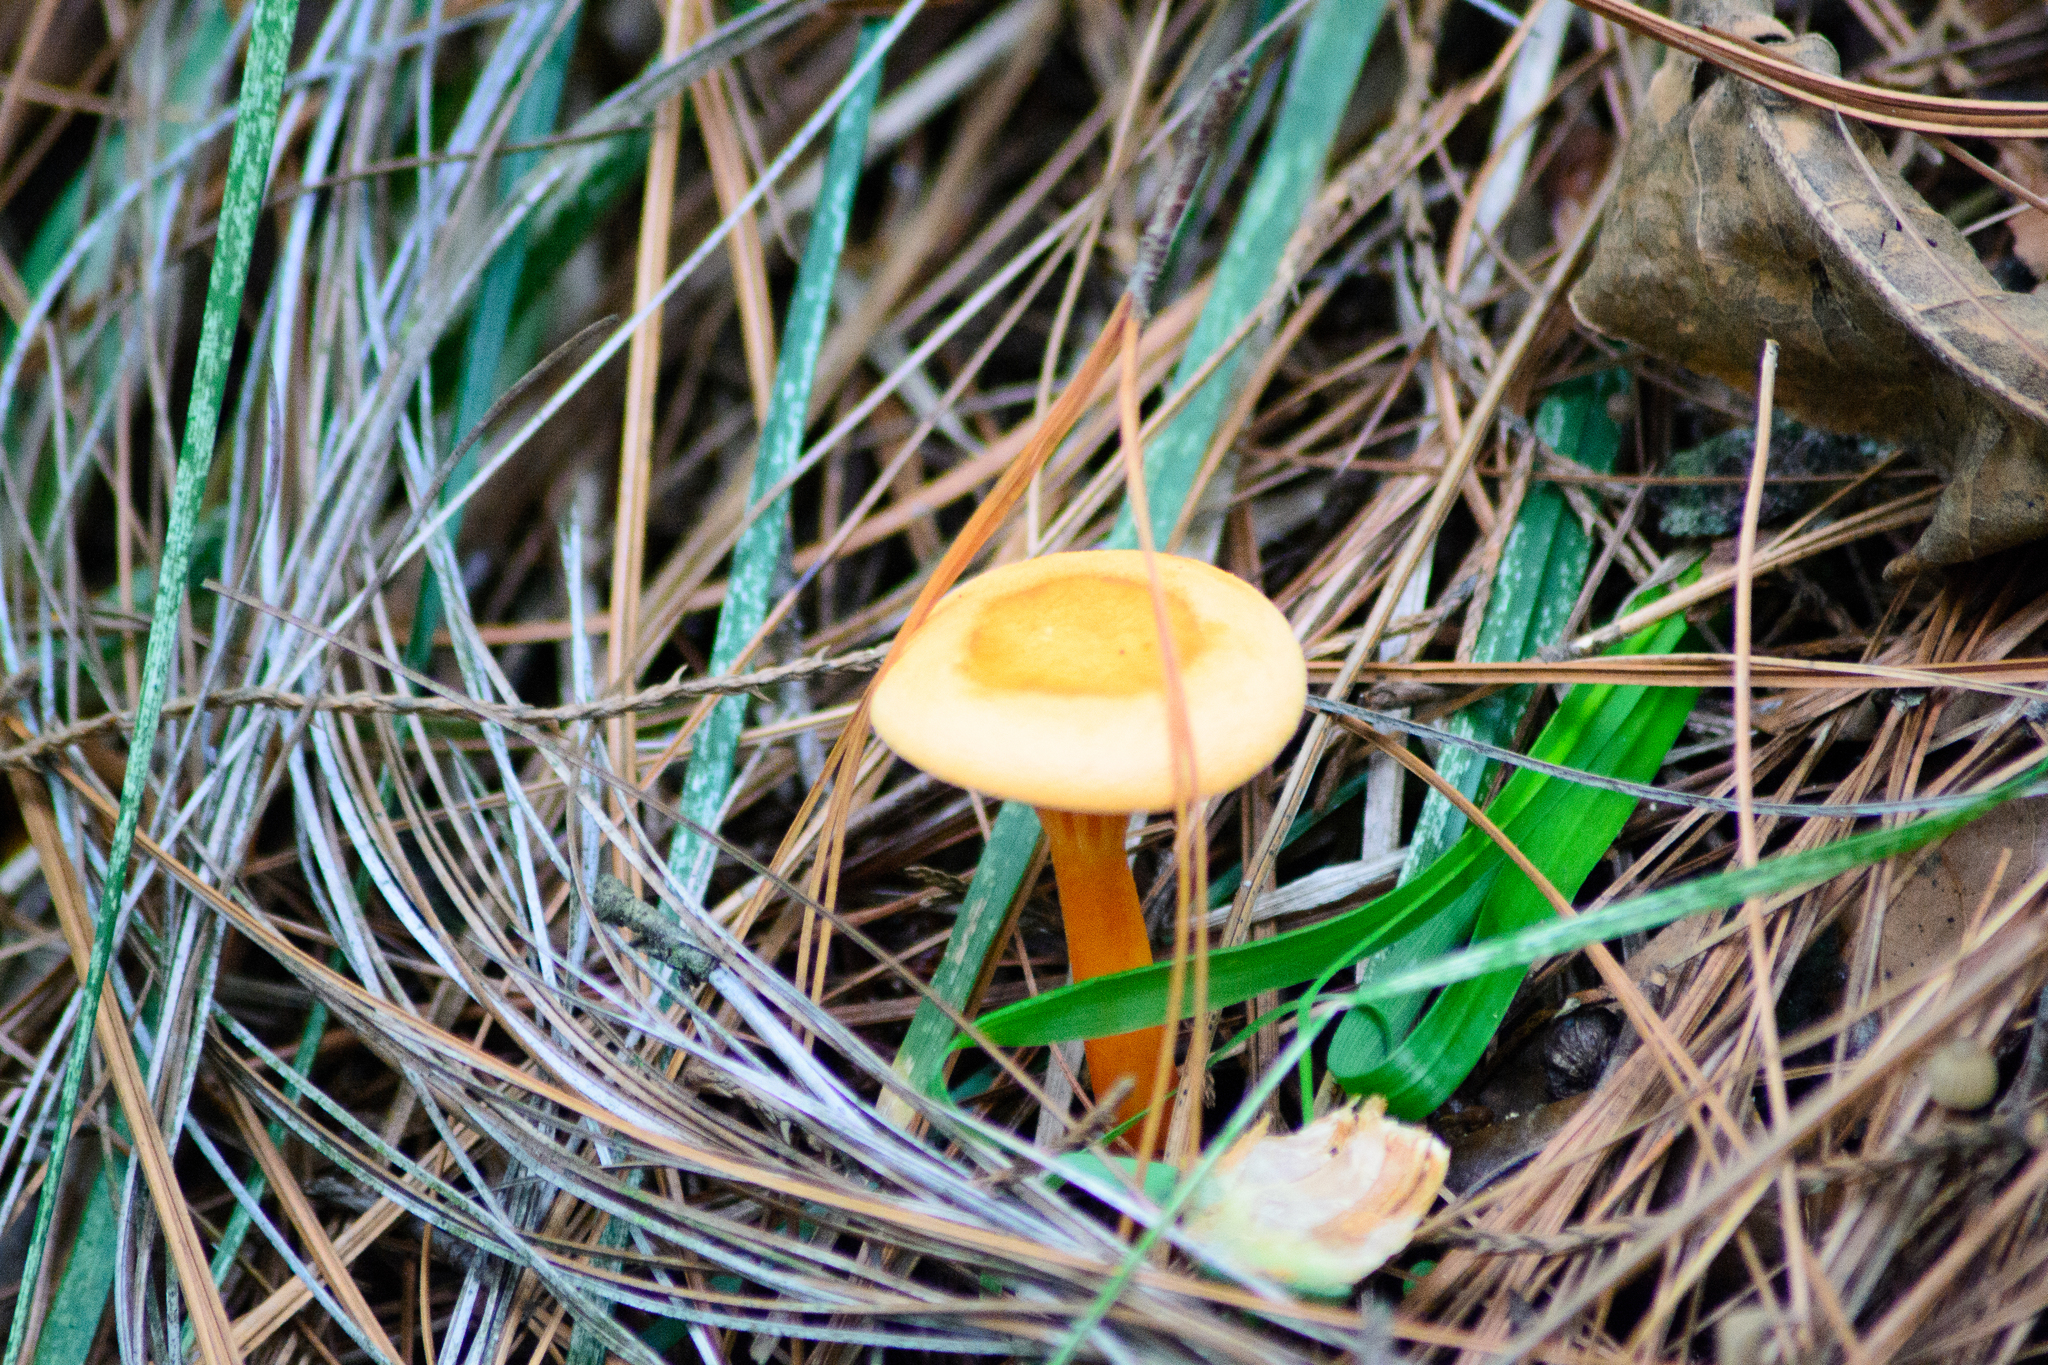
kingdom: Fungi
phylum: Basidiomycota
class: Agaricomycetes
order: Boletales
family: Hygrophoropsidaceae
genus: Hygrophoropsis
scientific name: Hygrophoropsis aurantiaca
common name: False chanterelle
